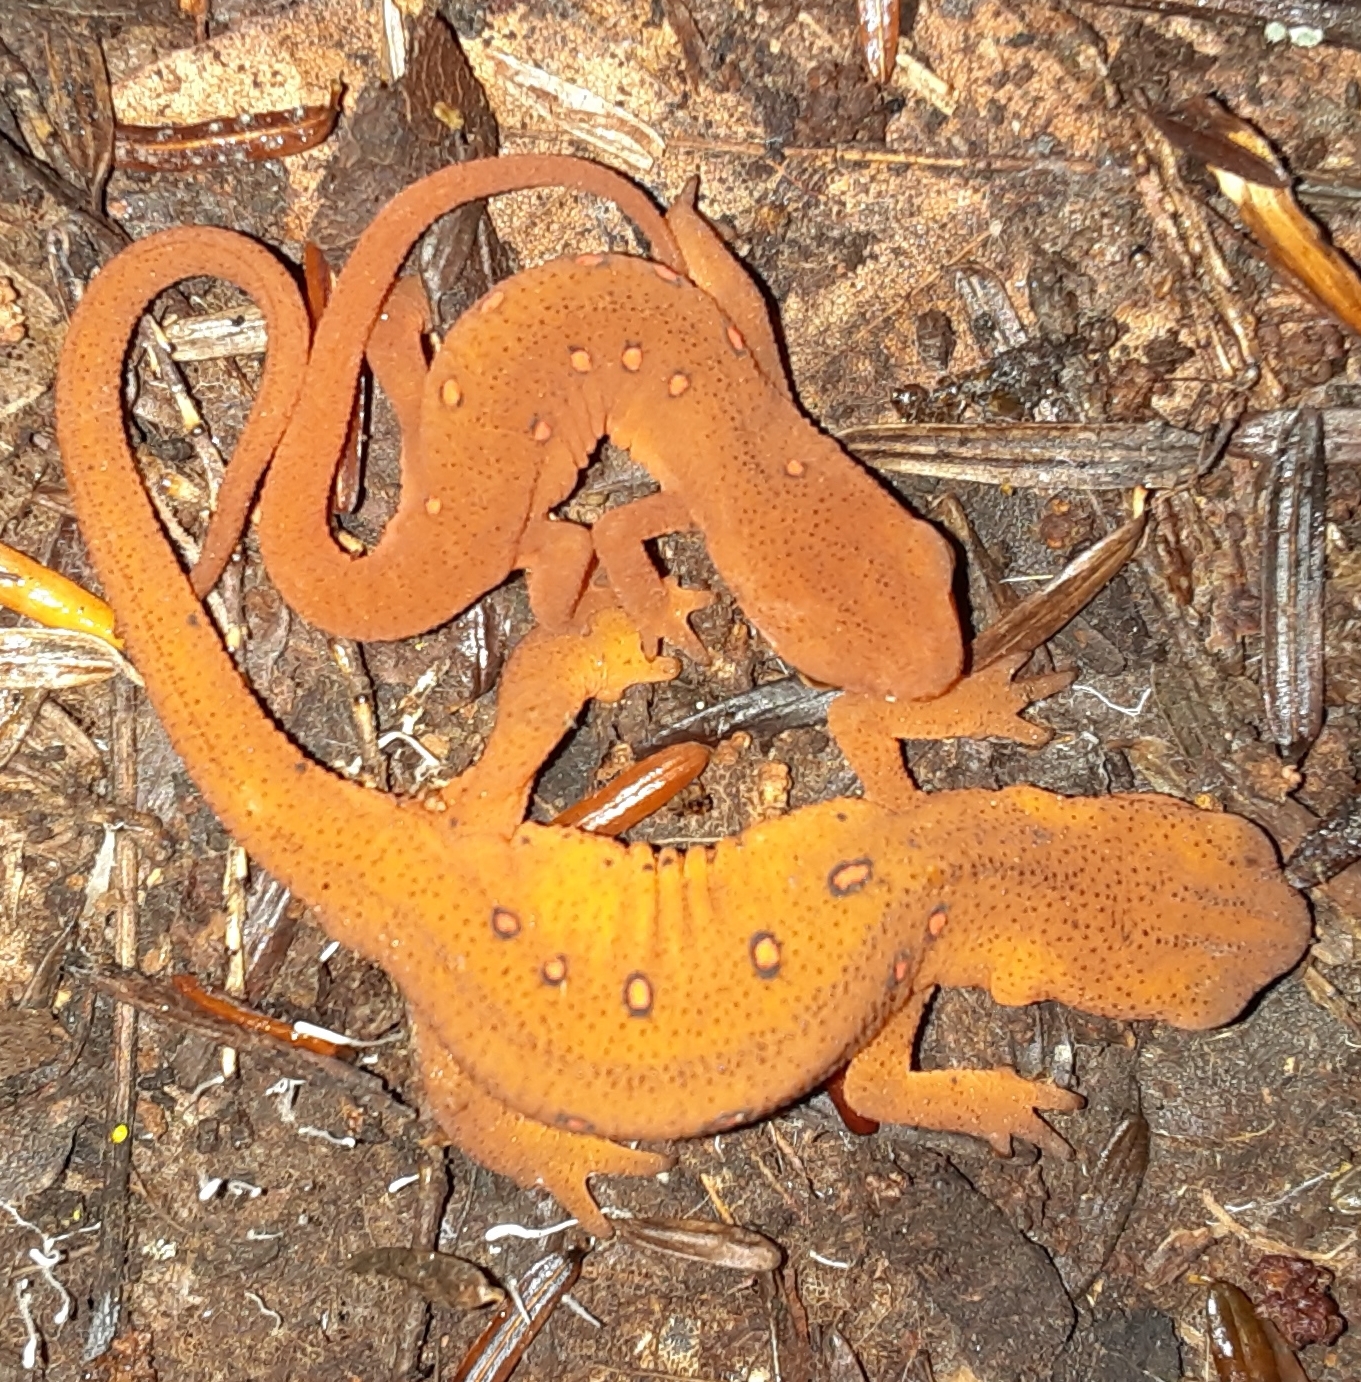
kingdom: Animalia
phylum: Chordata
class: Amphibia
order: Caudata
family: Salamandridae
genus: Notophthalmus
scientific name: Notophthalmus viridescens
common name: Eastern newt
